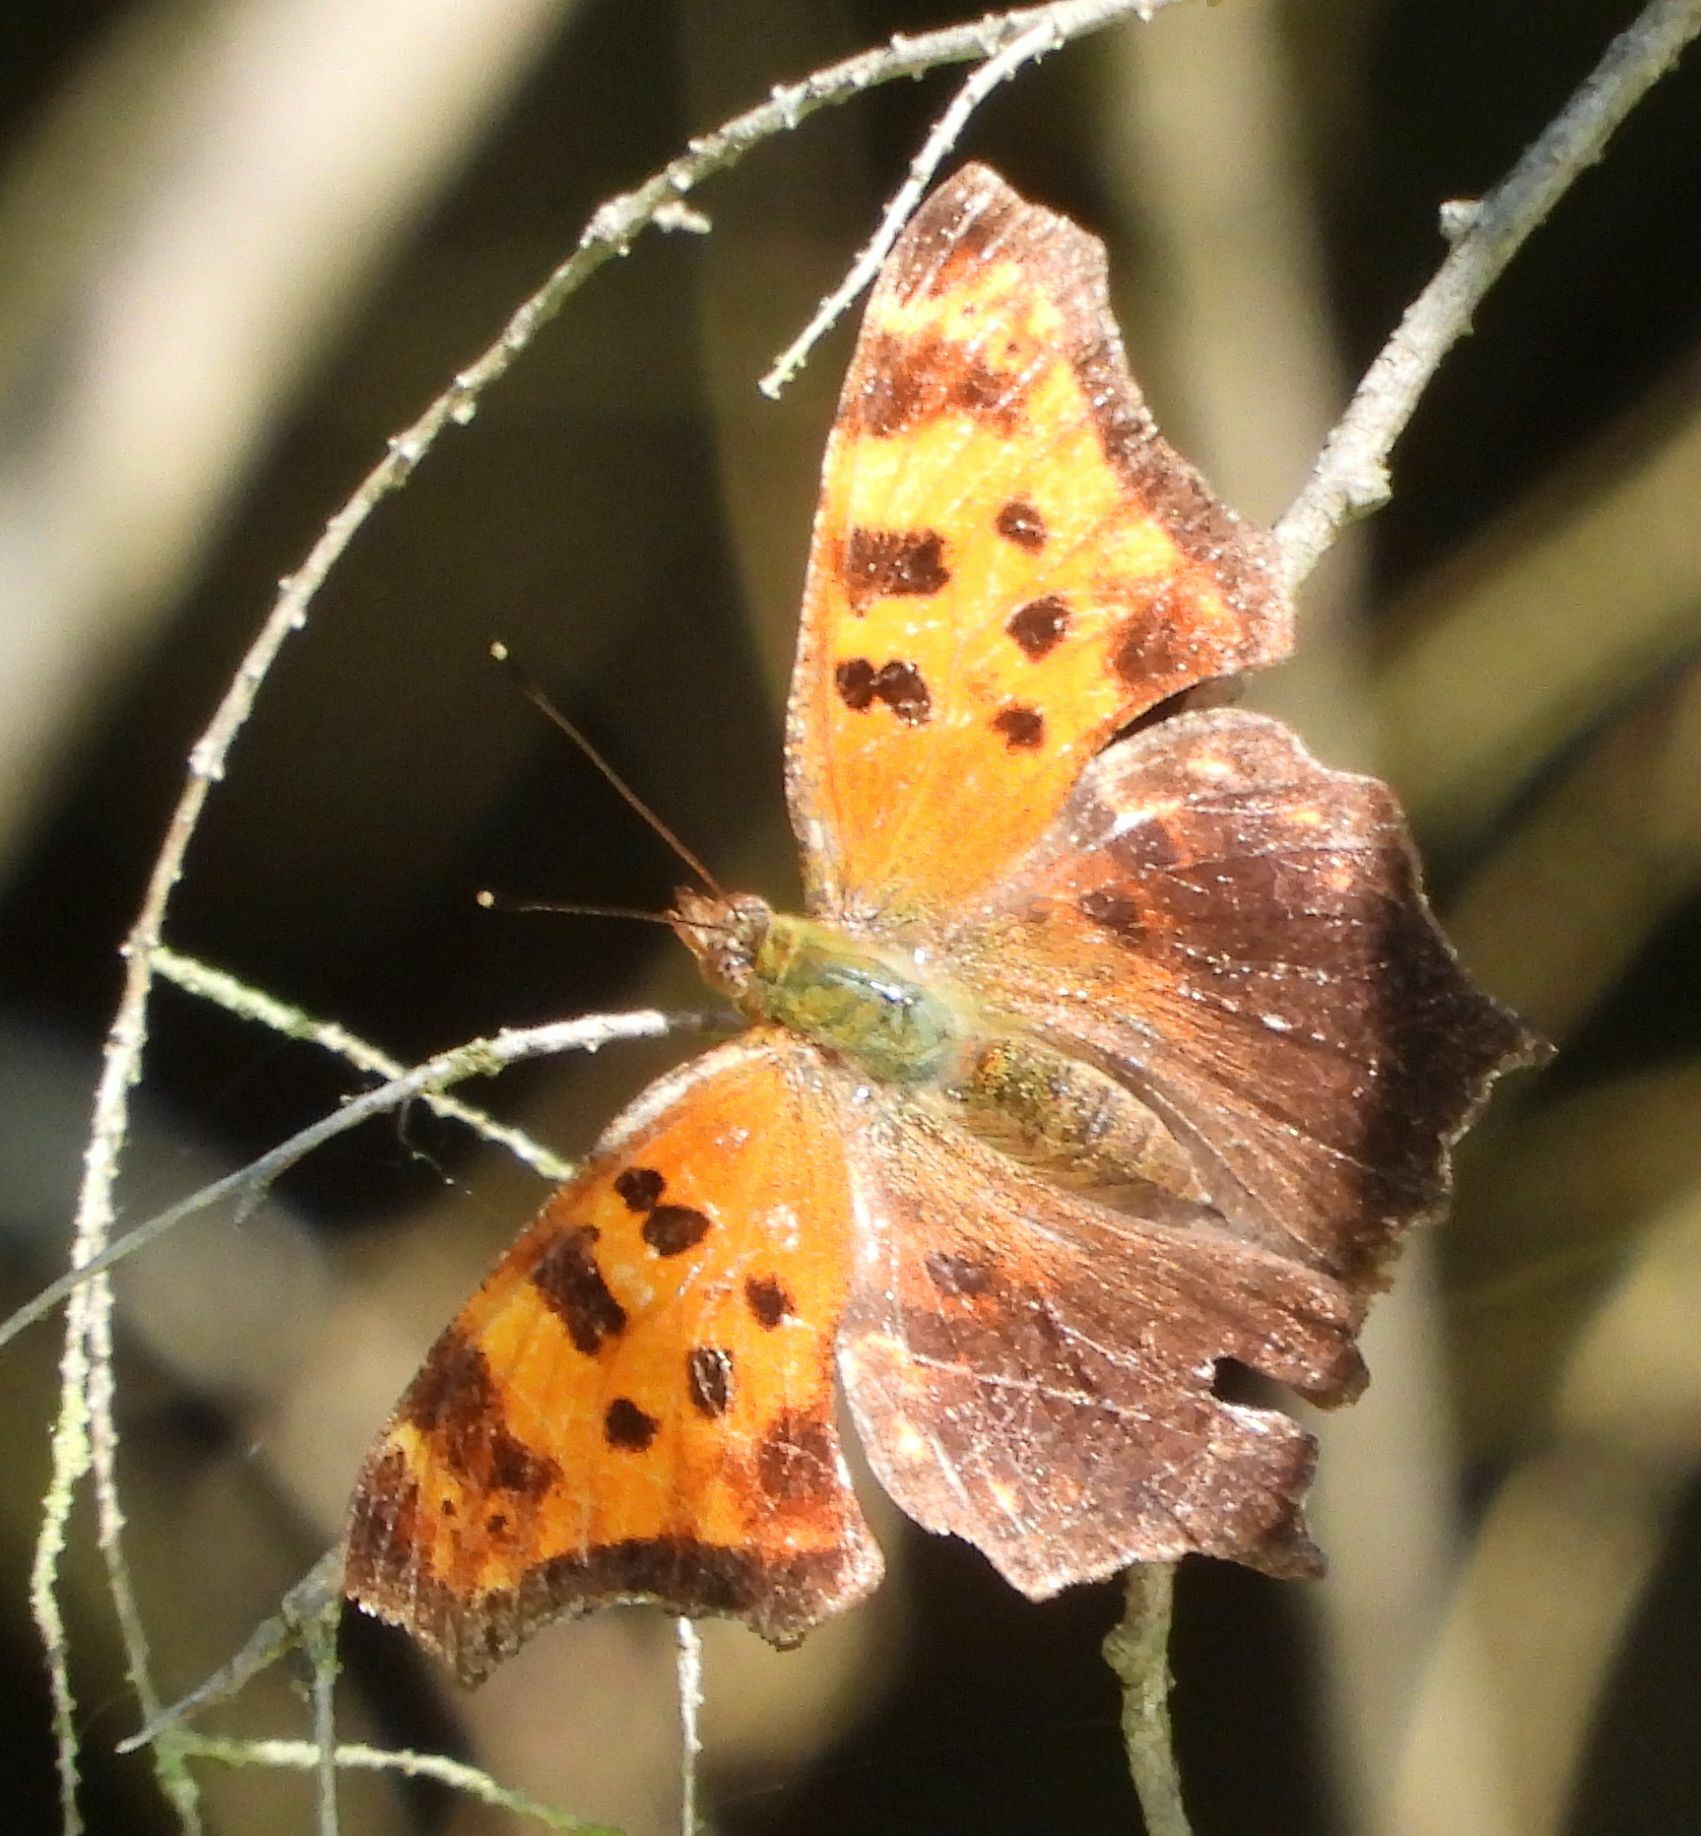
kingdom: Animalia
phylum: Arthropoda
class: Insecta
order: Lepidoptera
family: Nymphalidae
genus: Polygonia
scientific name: Polygonia comma
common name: Eastern comma
